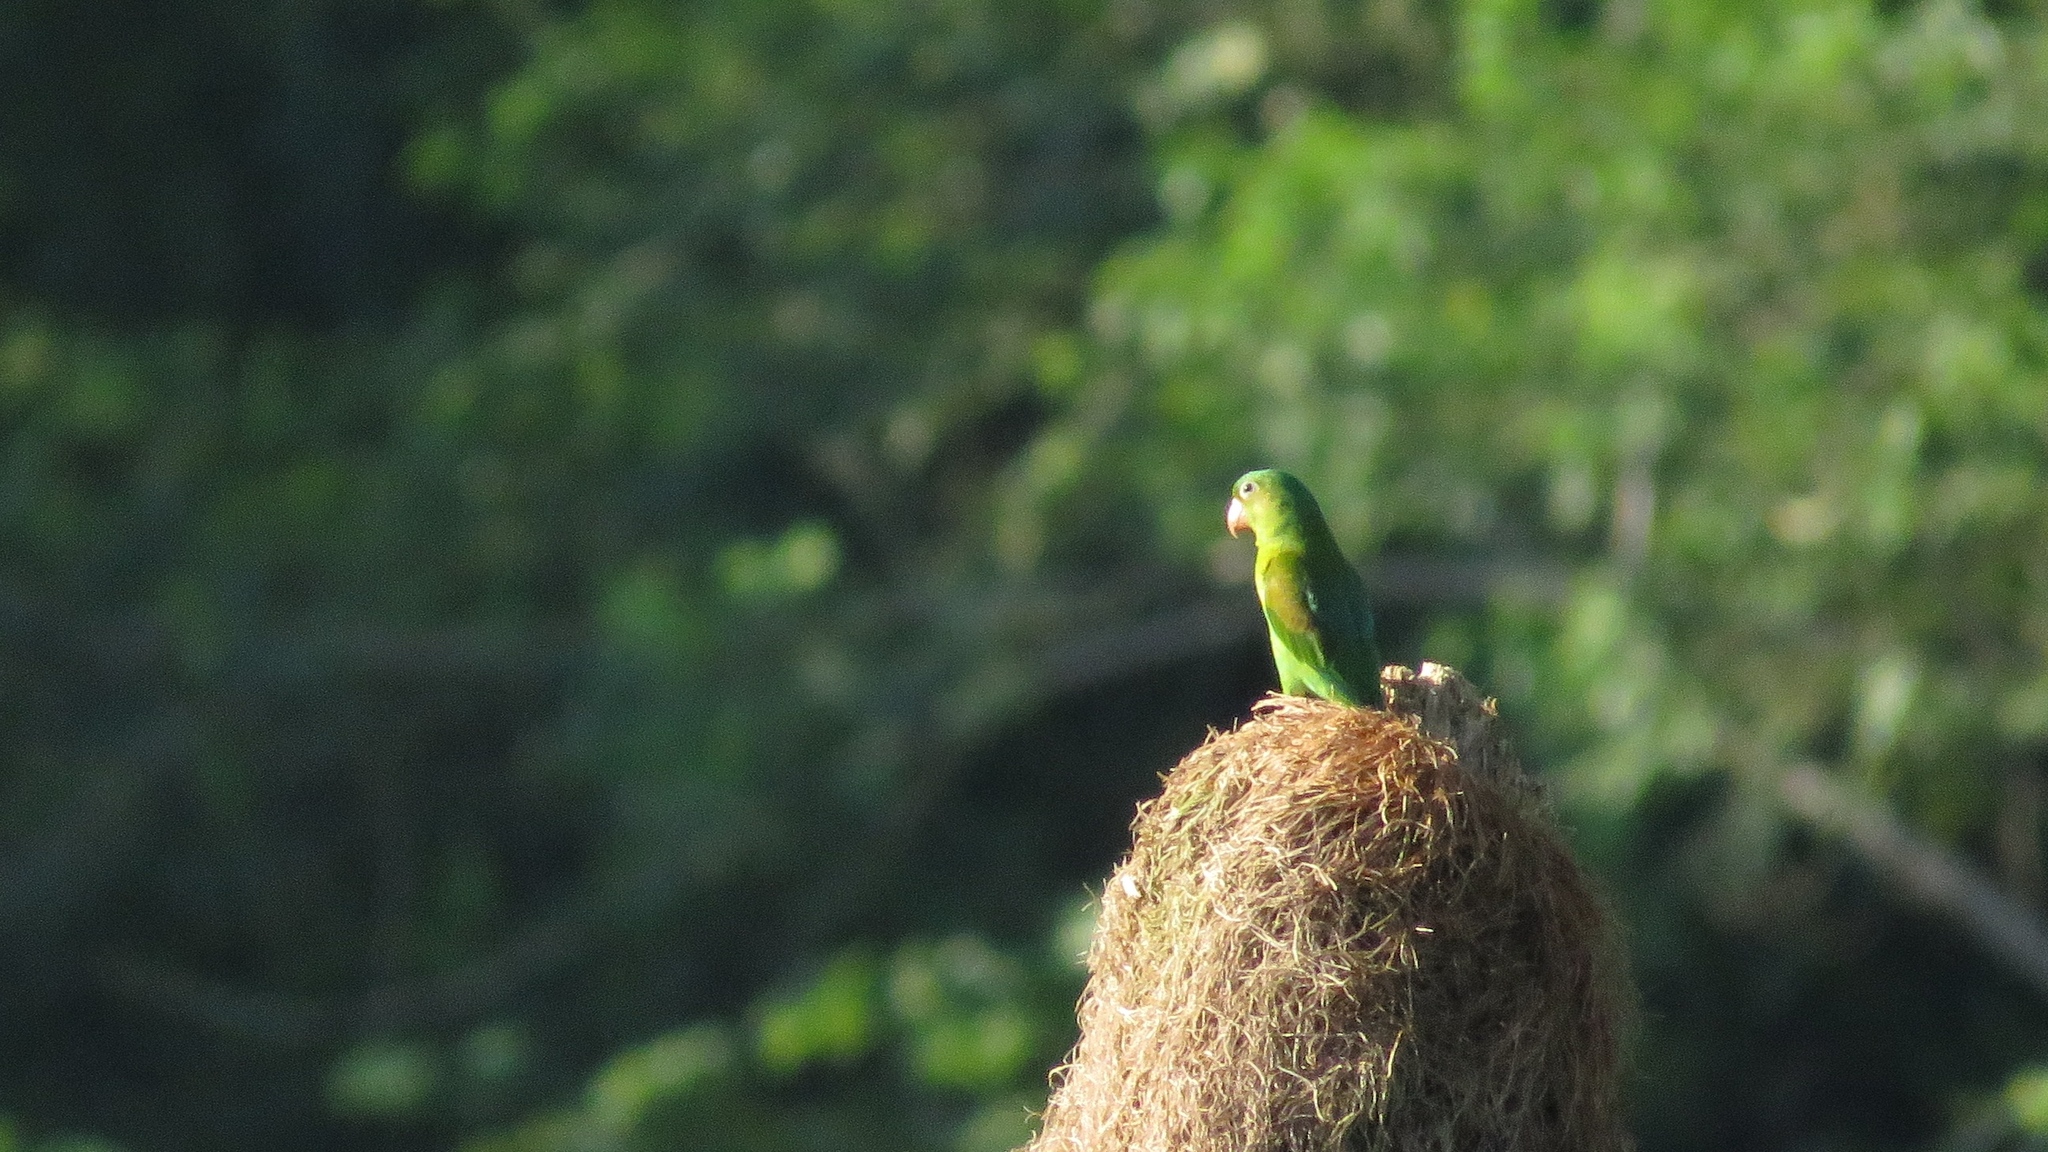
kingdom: Animalia
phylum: Chordata
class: Aves
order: Psittaciformes
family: Psittacidae
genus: Brotogeris
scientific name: Brotogeris jugularis
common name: Orange-chinned parakeet
